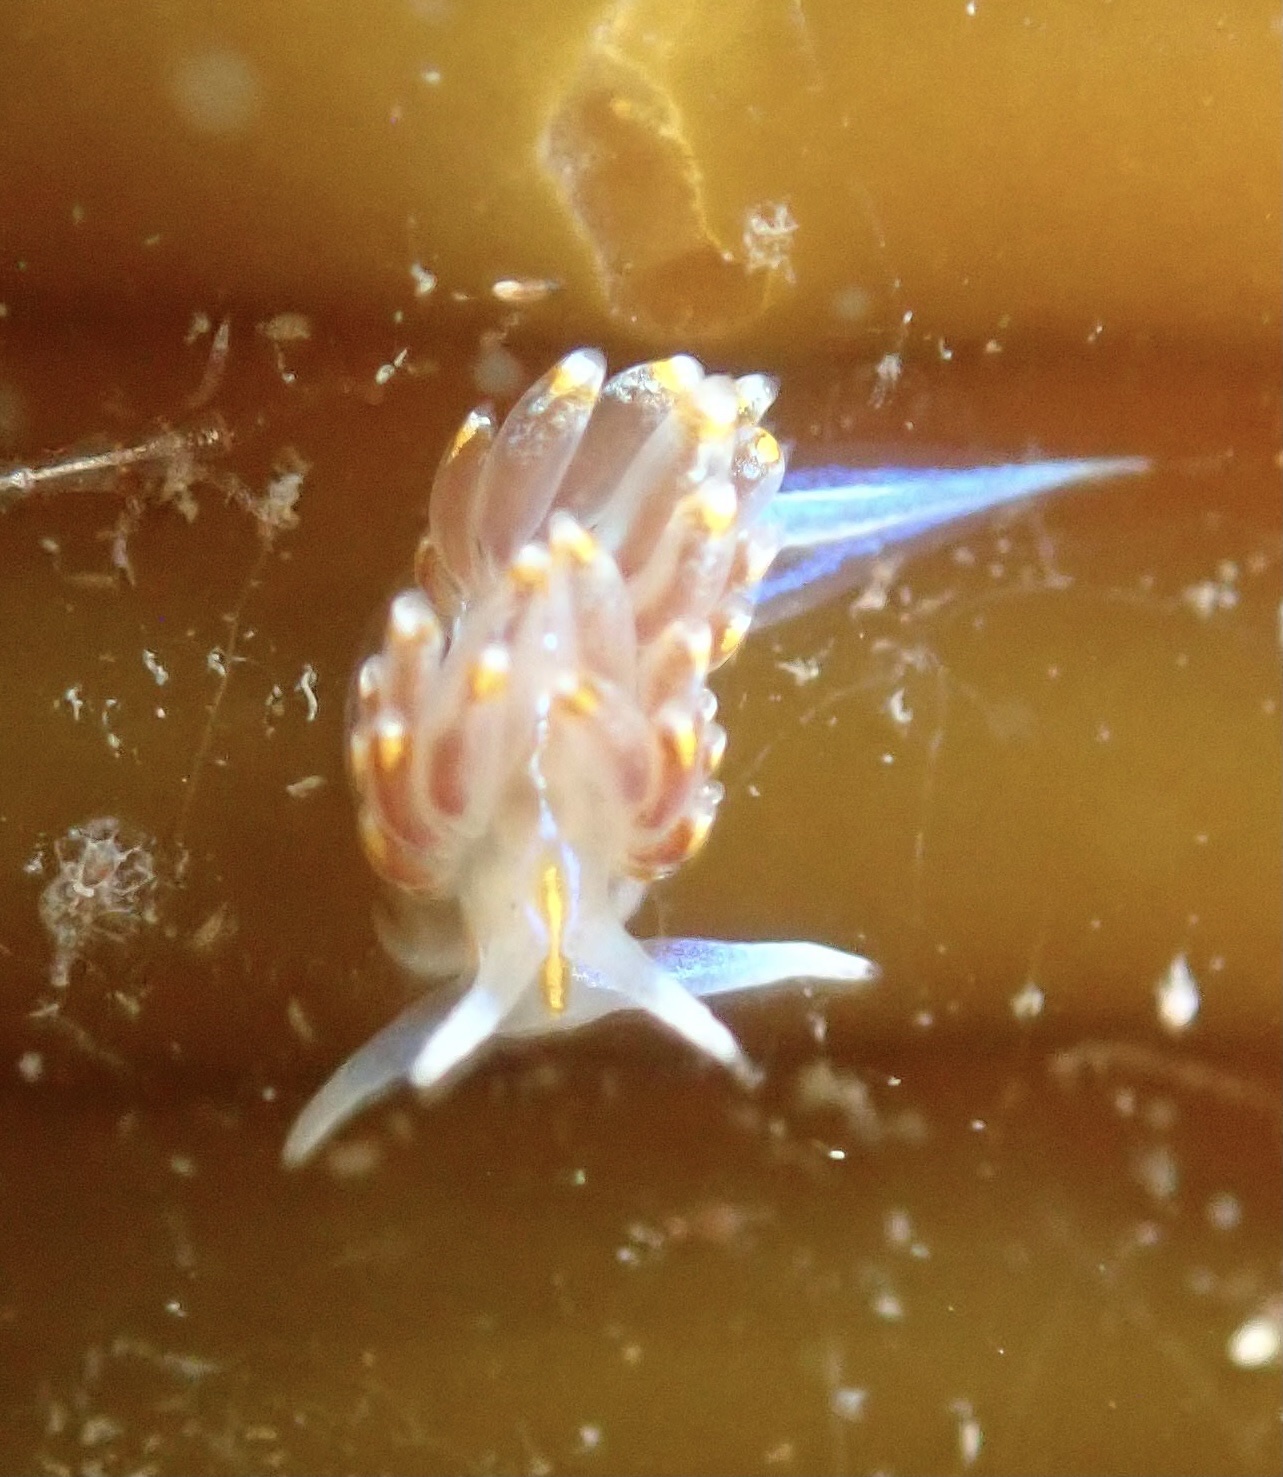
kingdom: Animalia
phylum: Mollusca
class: Gastropoda
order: Nudibranchia
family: Myrrhinidae
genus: Hermissenda
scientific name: Hermissenda opalescens
